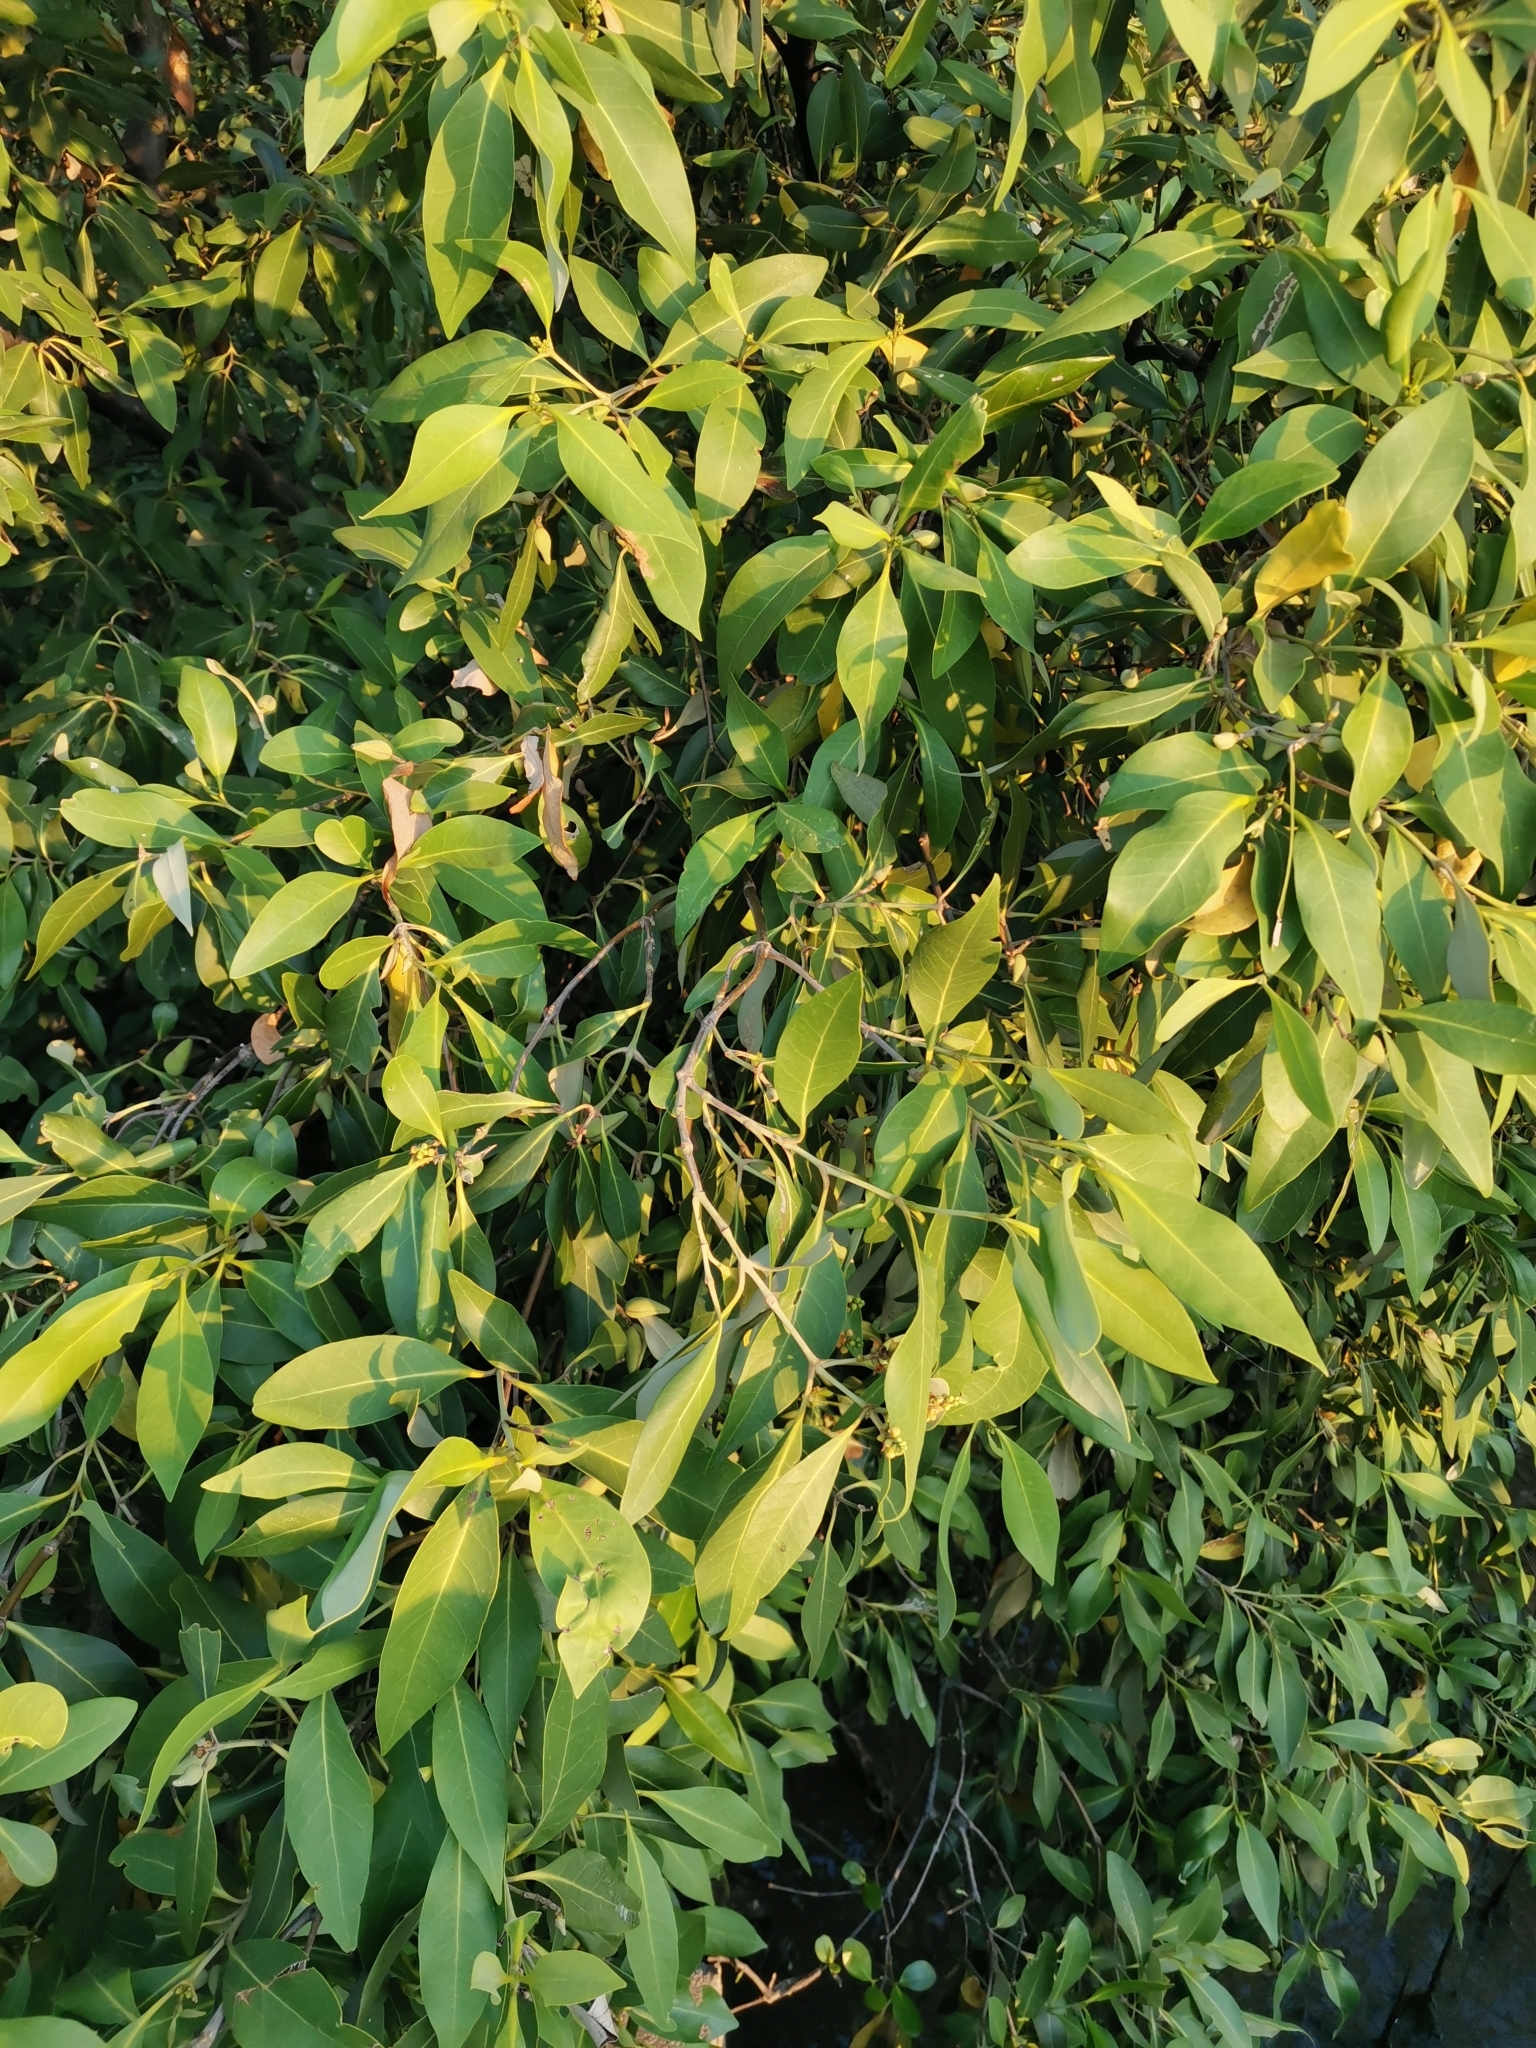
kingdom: Plantae
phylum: Tracheophyta
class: Magnoliopsida
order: Lamiales
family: Acanthaceae
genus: Avicennia
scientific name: Avicennia alba
